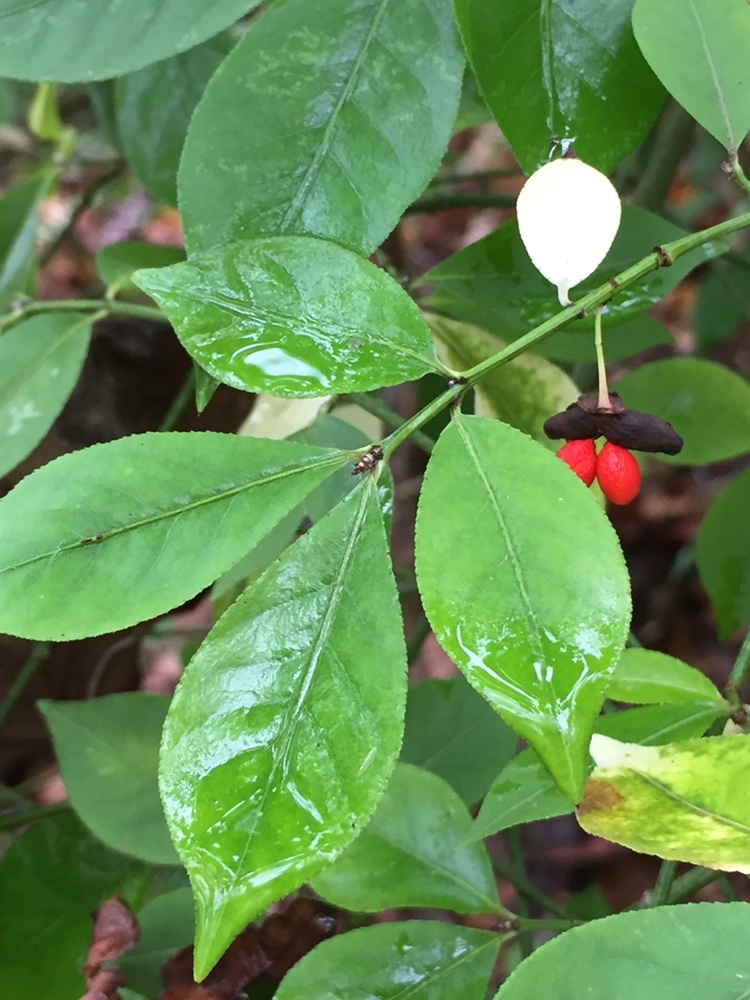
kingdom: Plantae
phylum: Tracheophyta
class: Magnoliopsida
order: Celastrales
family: Celastraceae
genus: Euonymus
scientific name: Euonymus alatus
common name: Winged euonymus
